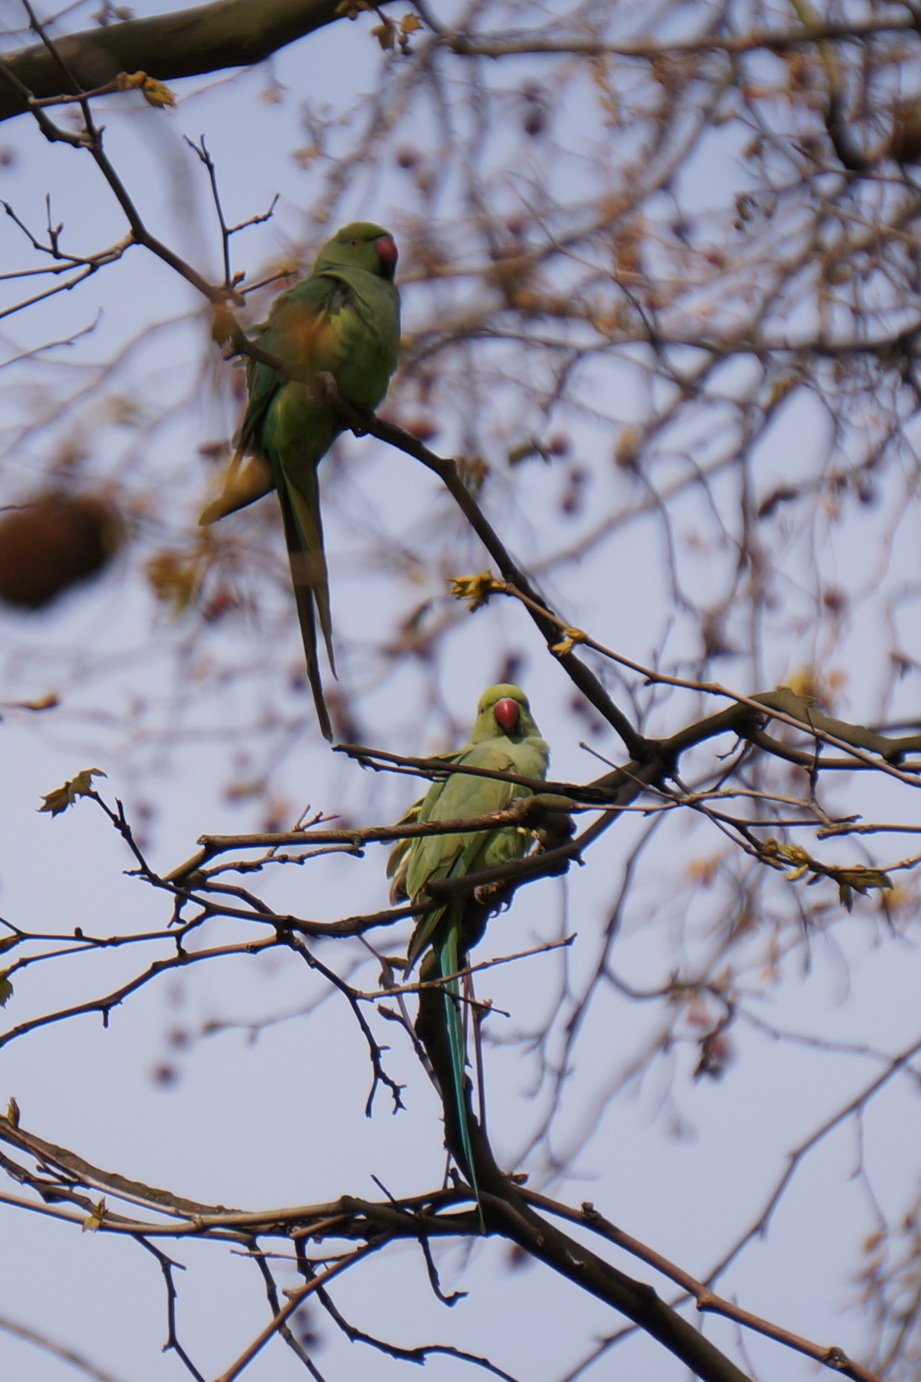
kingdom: Animalia
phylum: Chordata
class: Aves
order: Psittaciformes
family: Psittacidae
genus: Psittacula
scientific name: Psittacula krameri
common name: Rose-ringed parakeet
